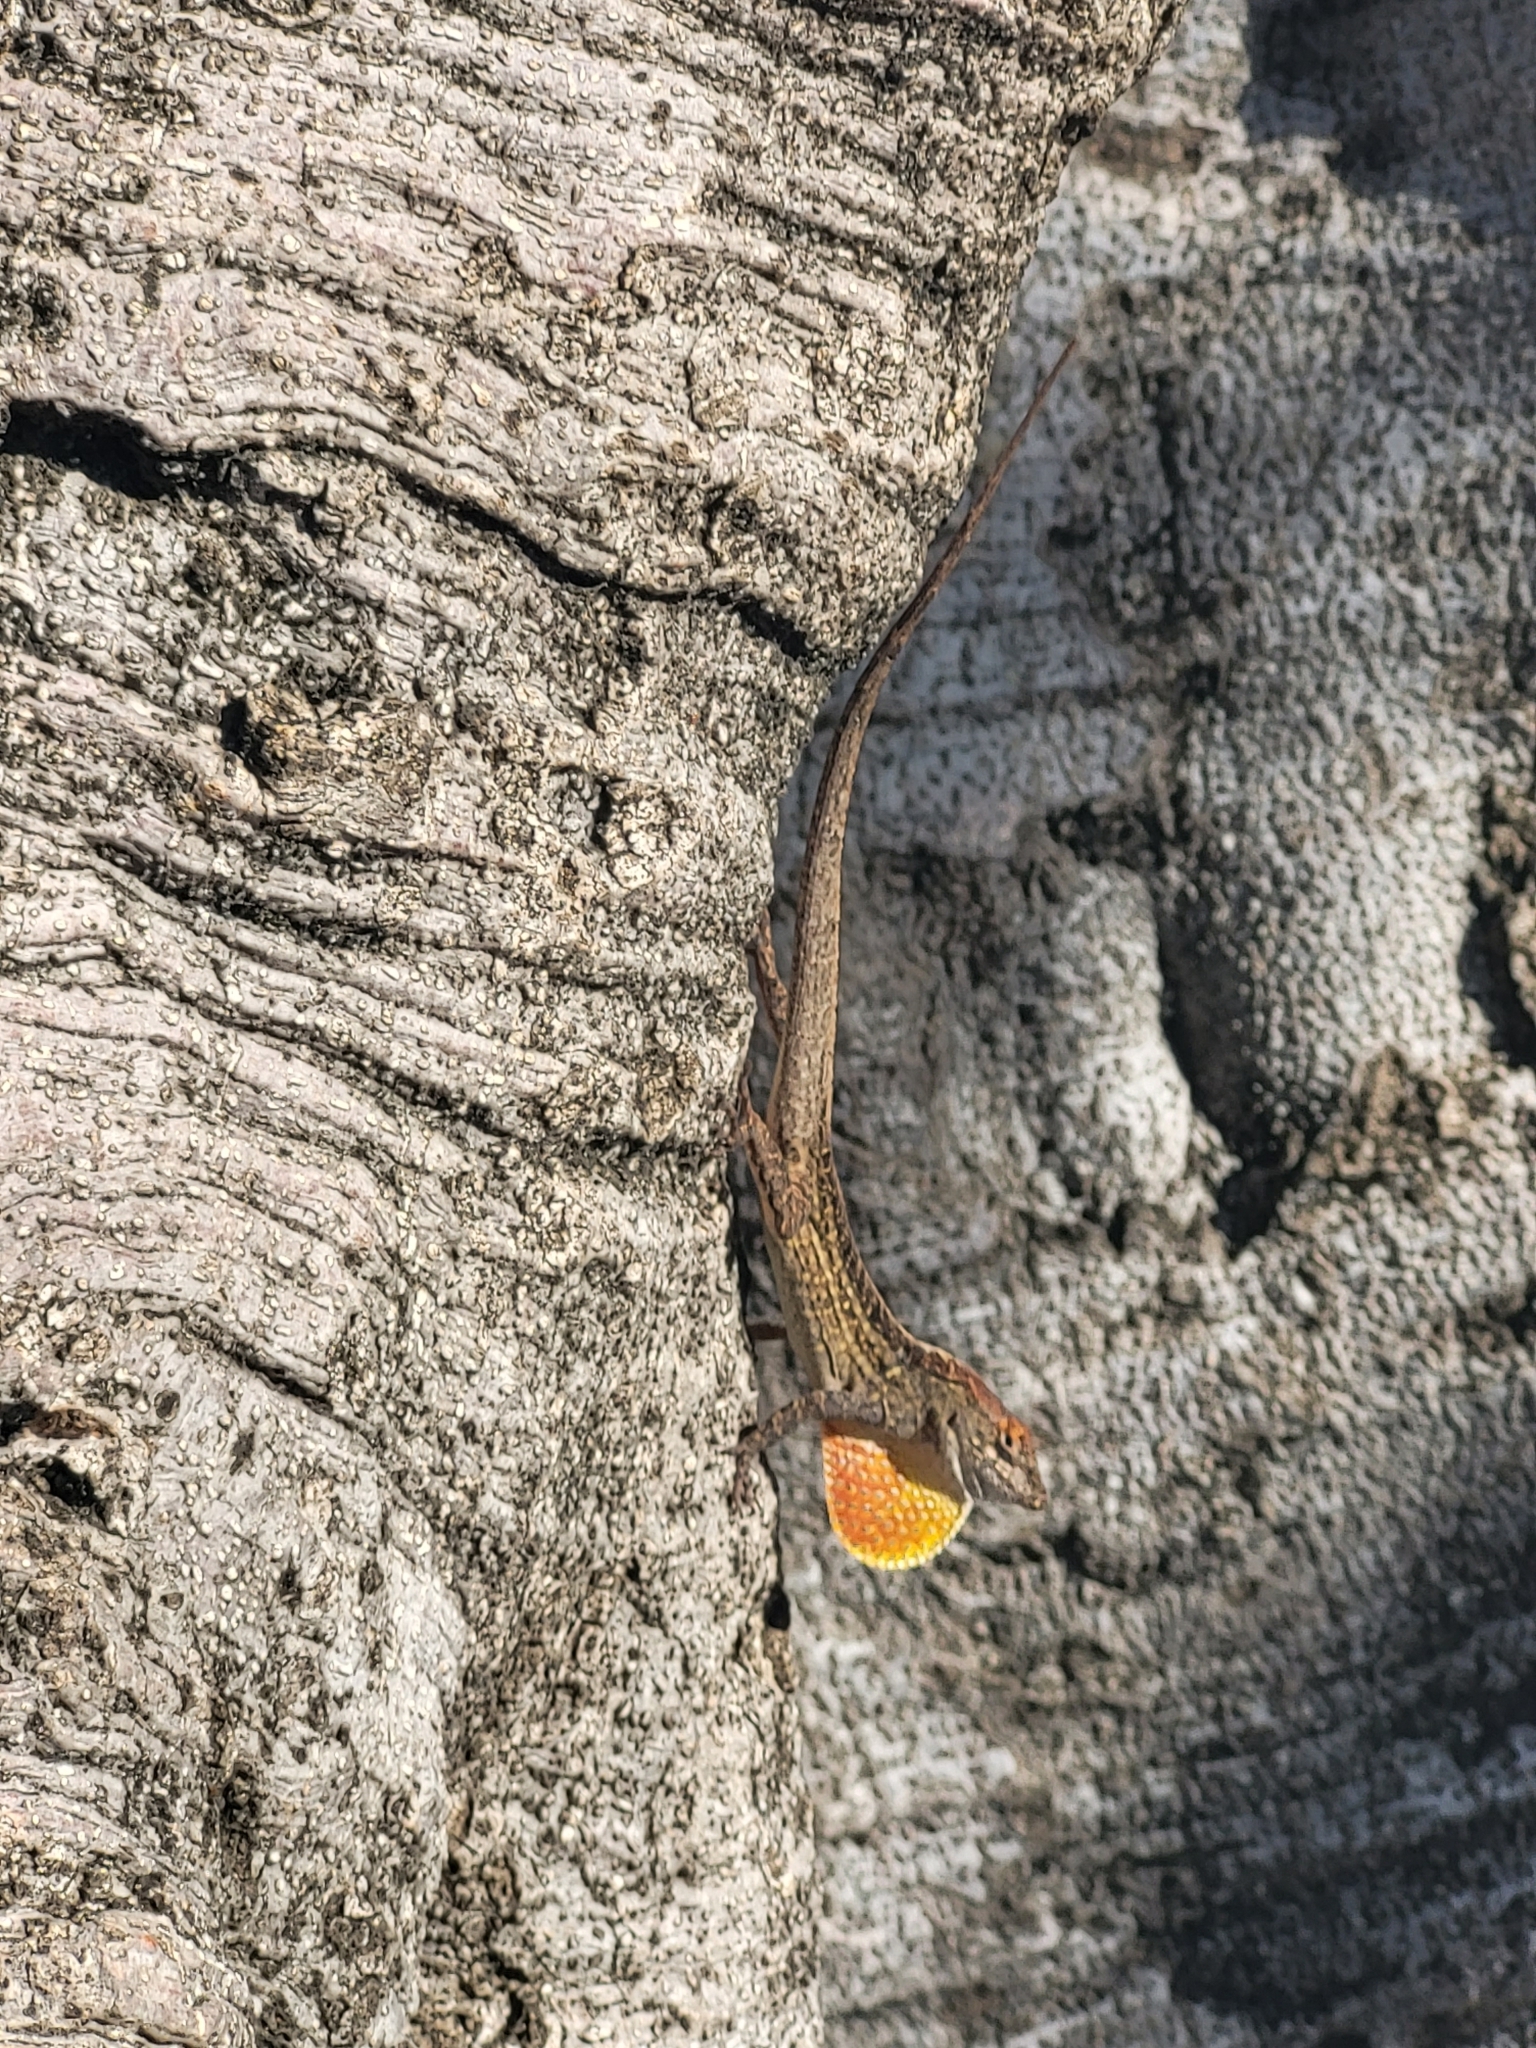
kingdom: Animalia
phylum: Chordata
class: Squamata
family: Dactyloidae
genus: Anolis
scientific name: Anolis sagrei
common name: Brown anole
